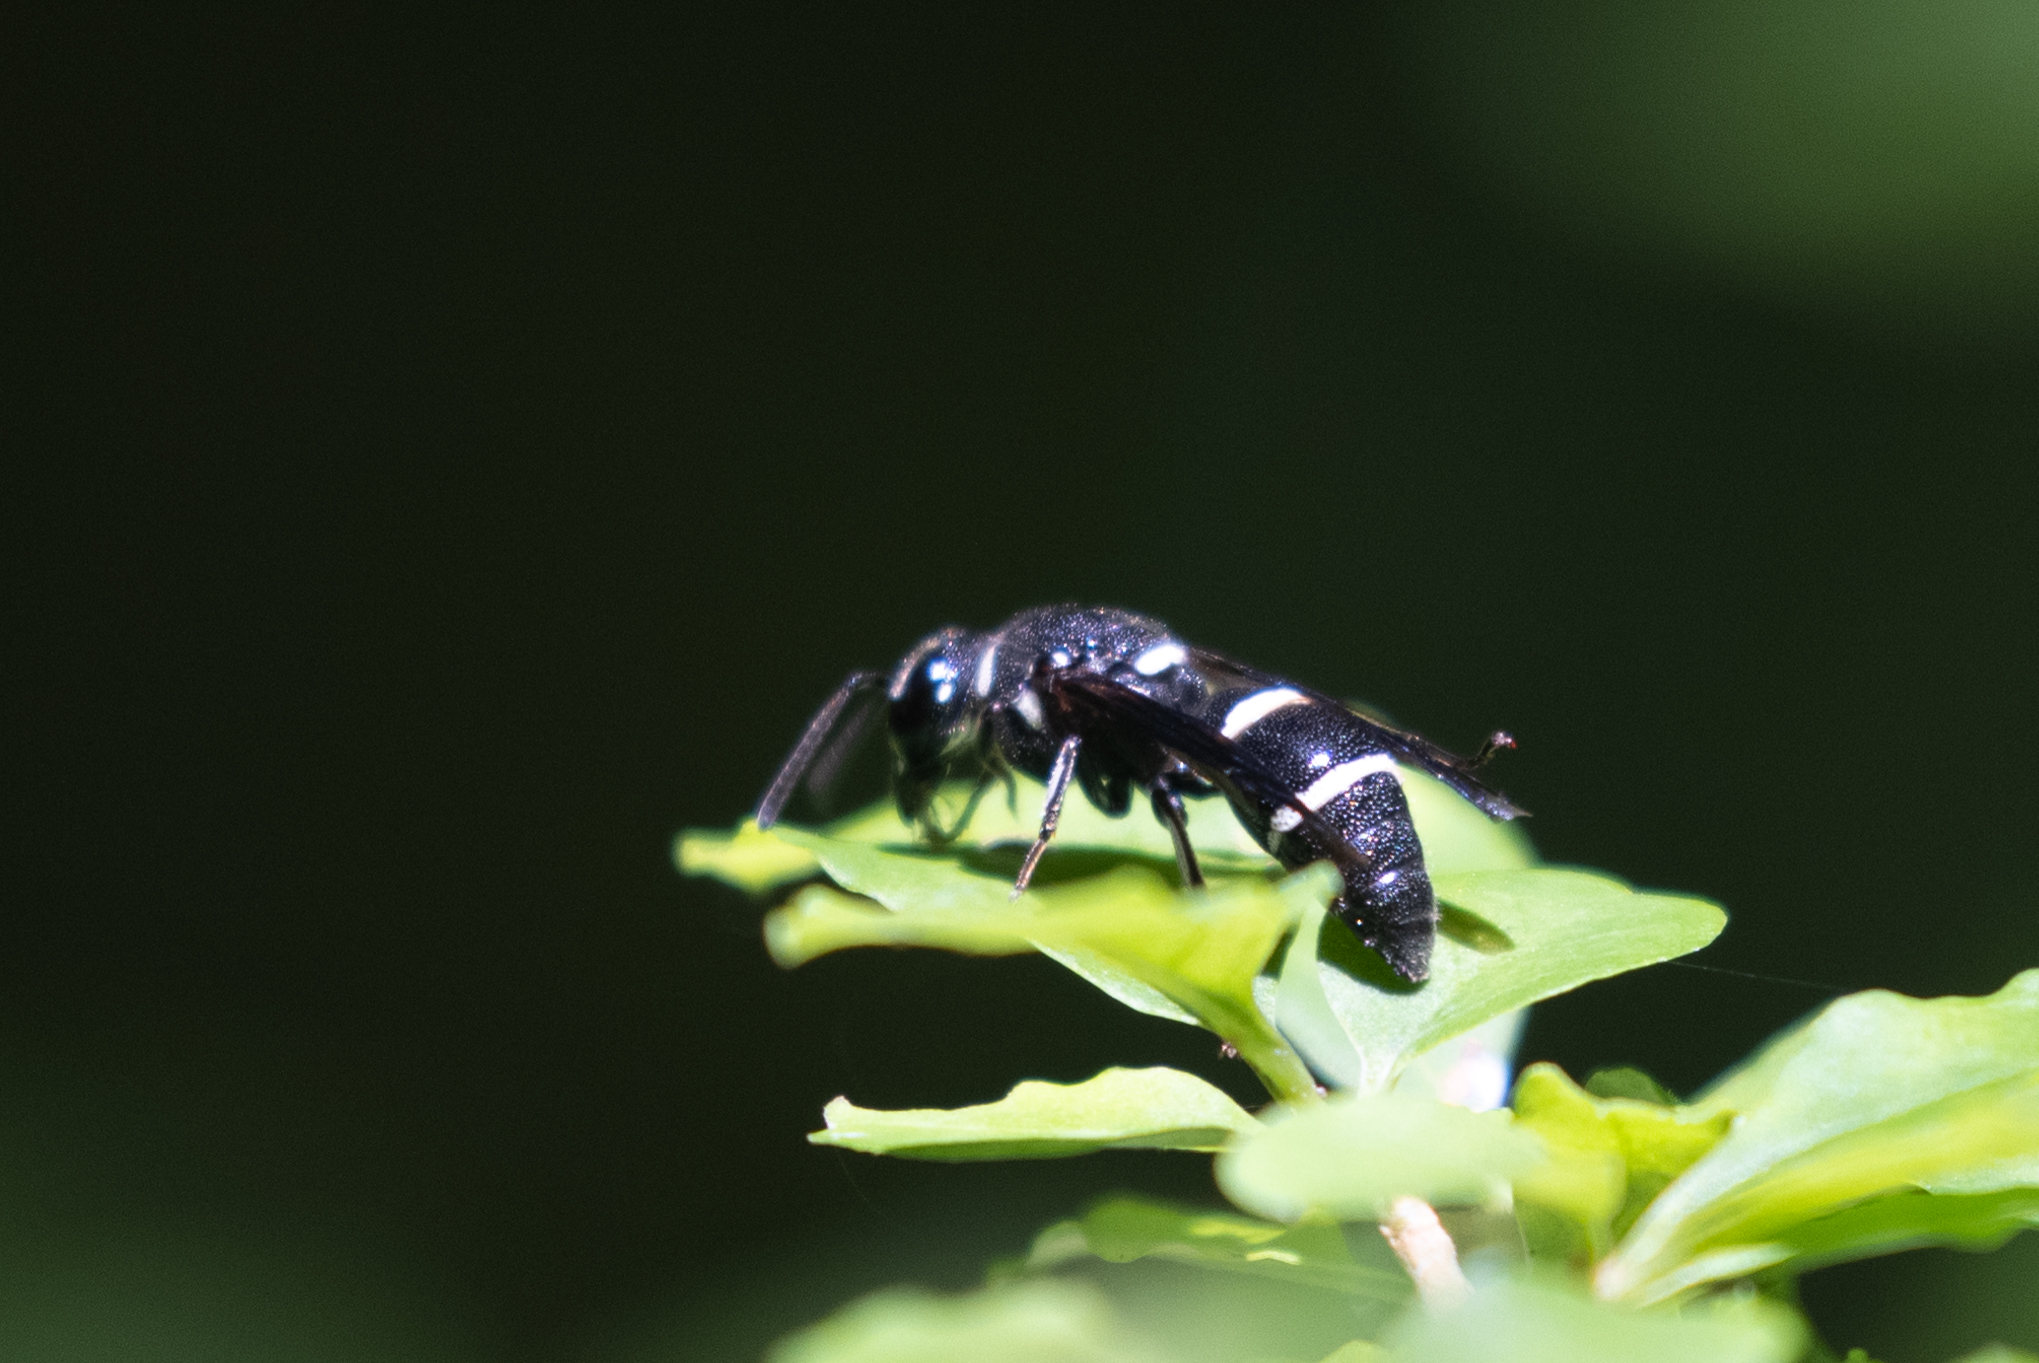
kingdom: Animalia
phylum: Arthropoda
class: Insecta
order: Hymenoptera
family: Eumenidae
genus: Euodynerus
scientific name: Euodynerus schwarzi
